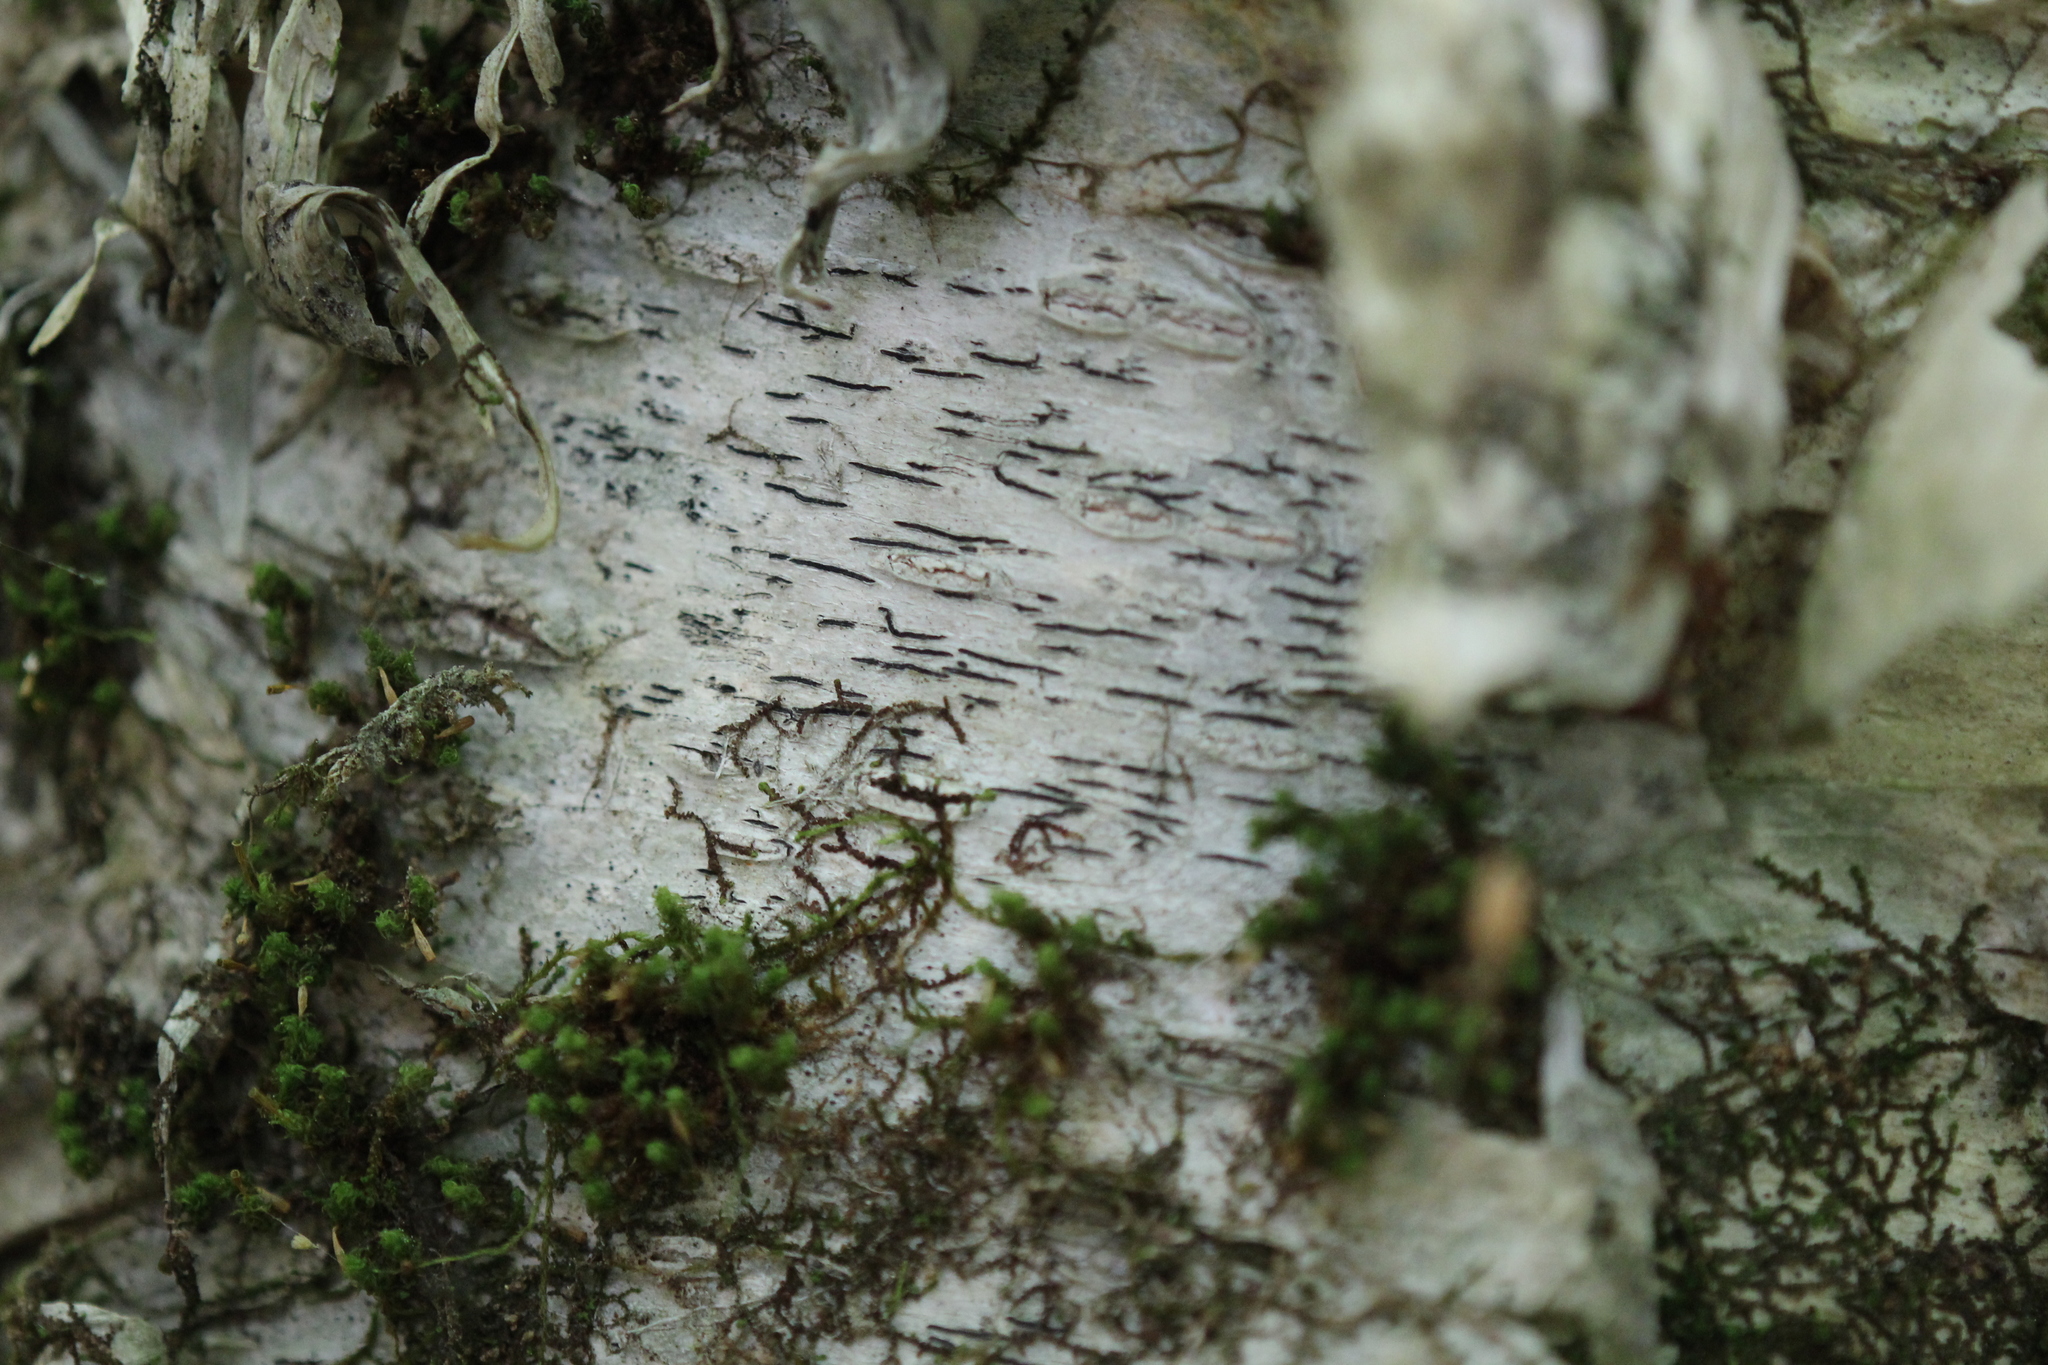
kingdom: Fungi
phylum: Ascomycota
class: Lecanoromycetes
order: Ostropales
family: Graphidaceae
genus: Graphis
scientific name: Graphis scripta
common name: Script lichen
